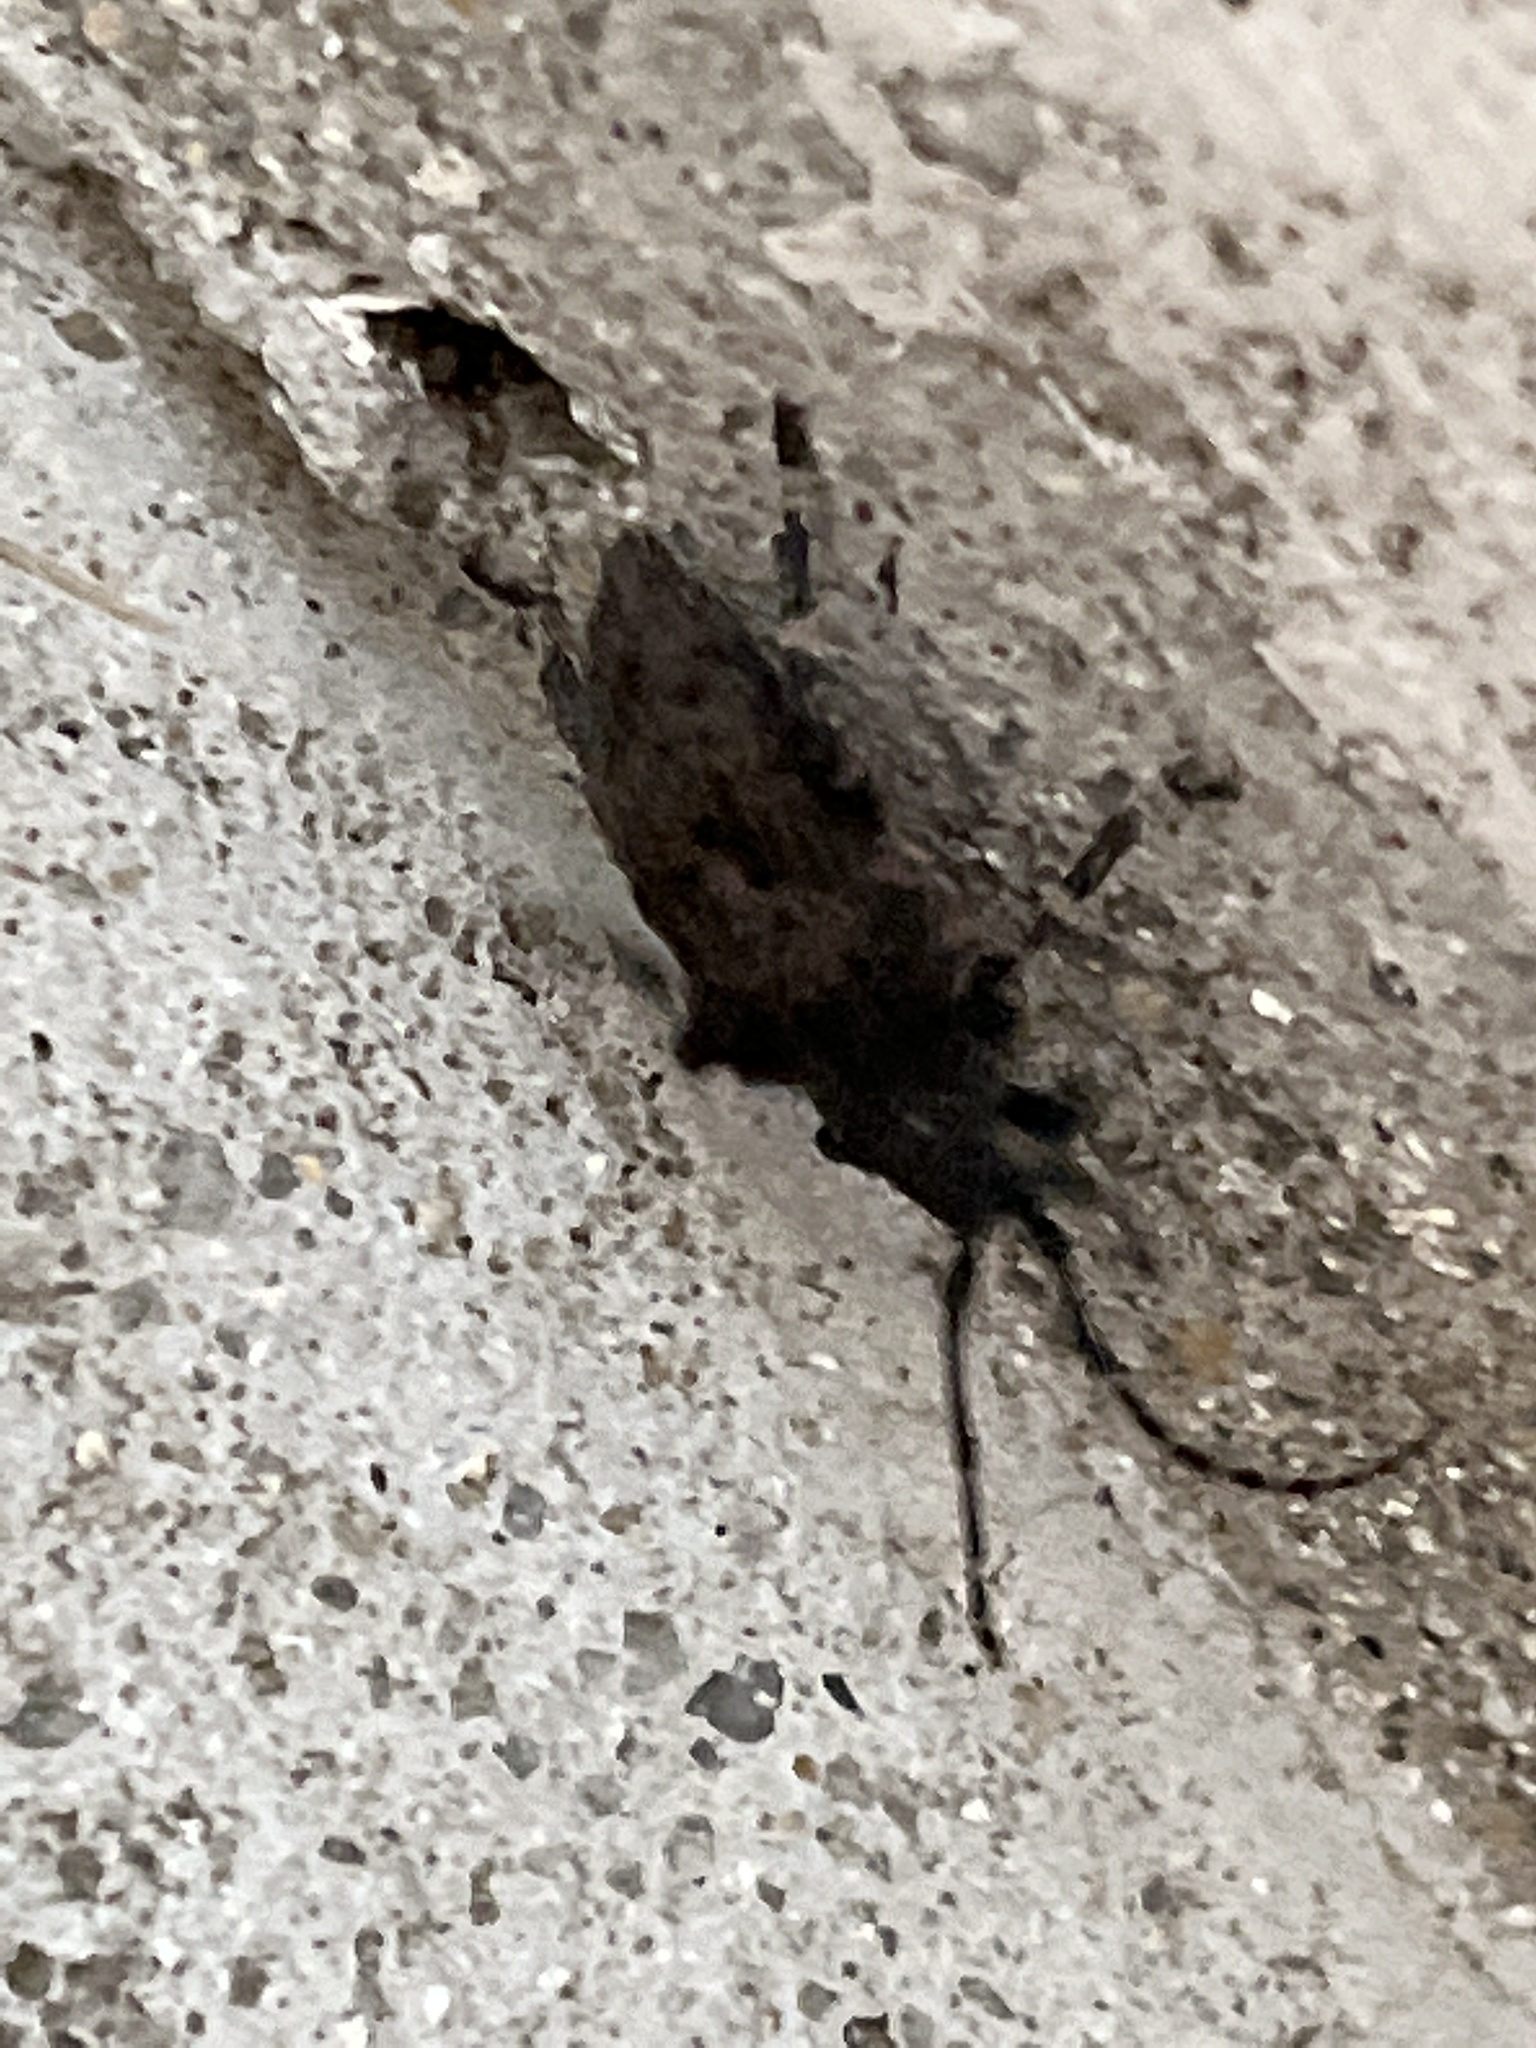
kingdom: Animalia
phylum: Arthropoda
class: Insecta
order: Coleoptera
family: Cerambycidae
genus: Moechotypa
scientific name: Moechotypa diphysis
